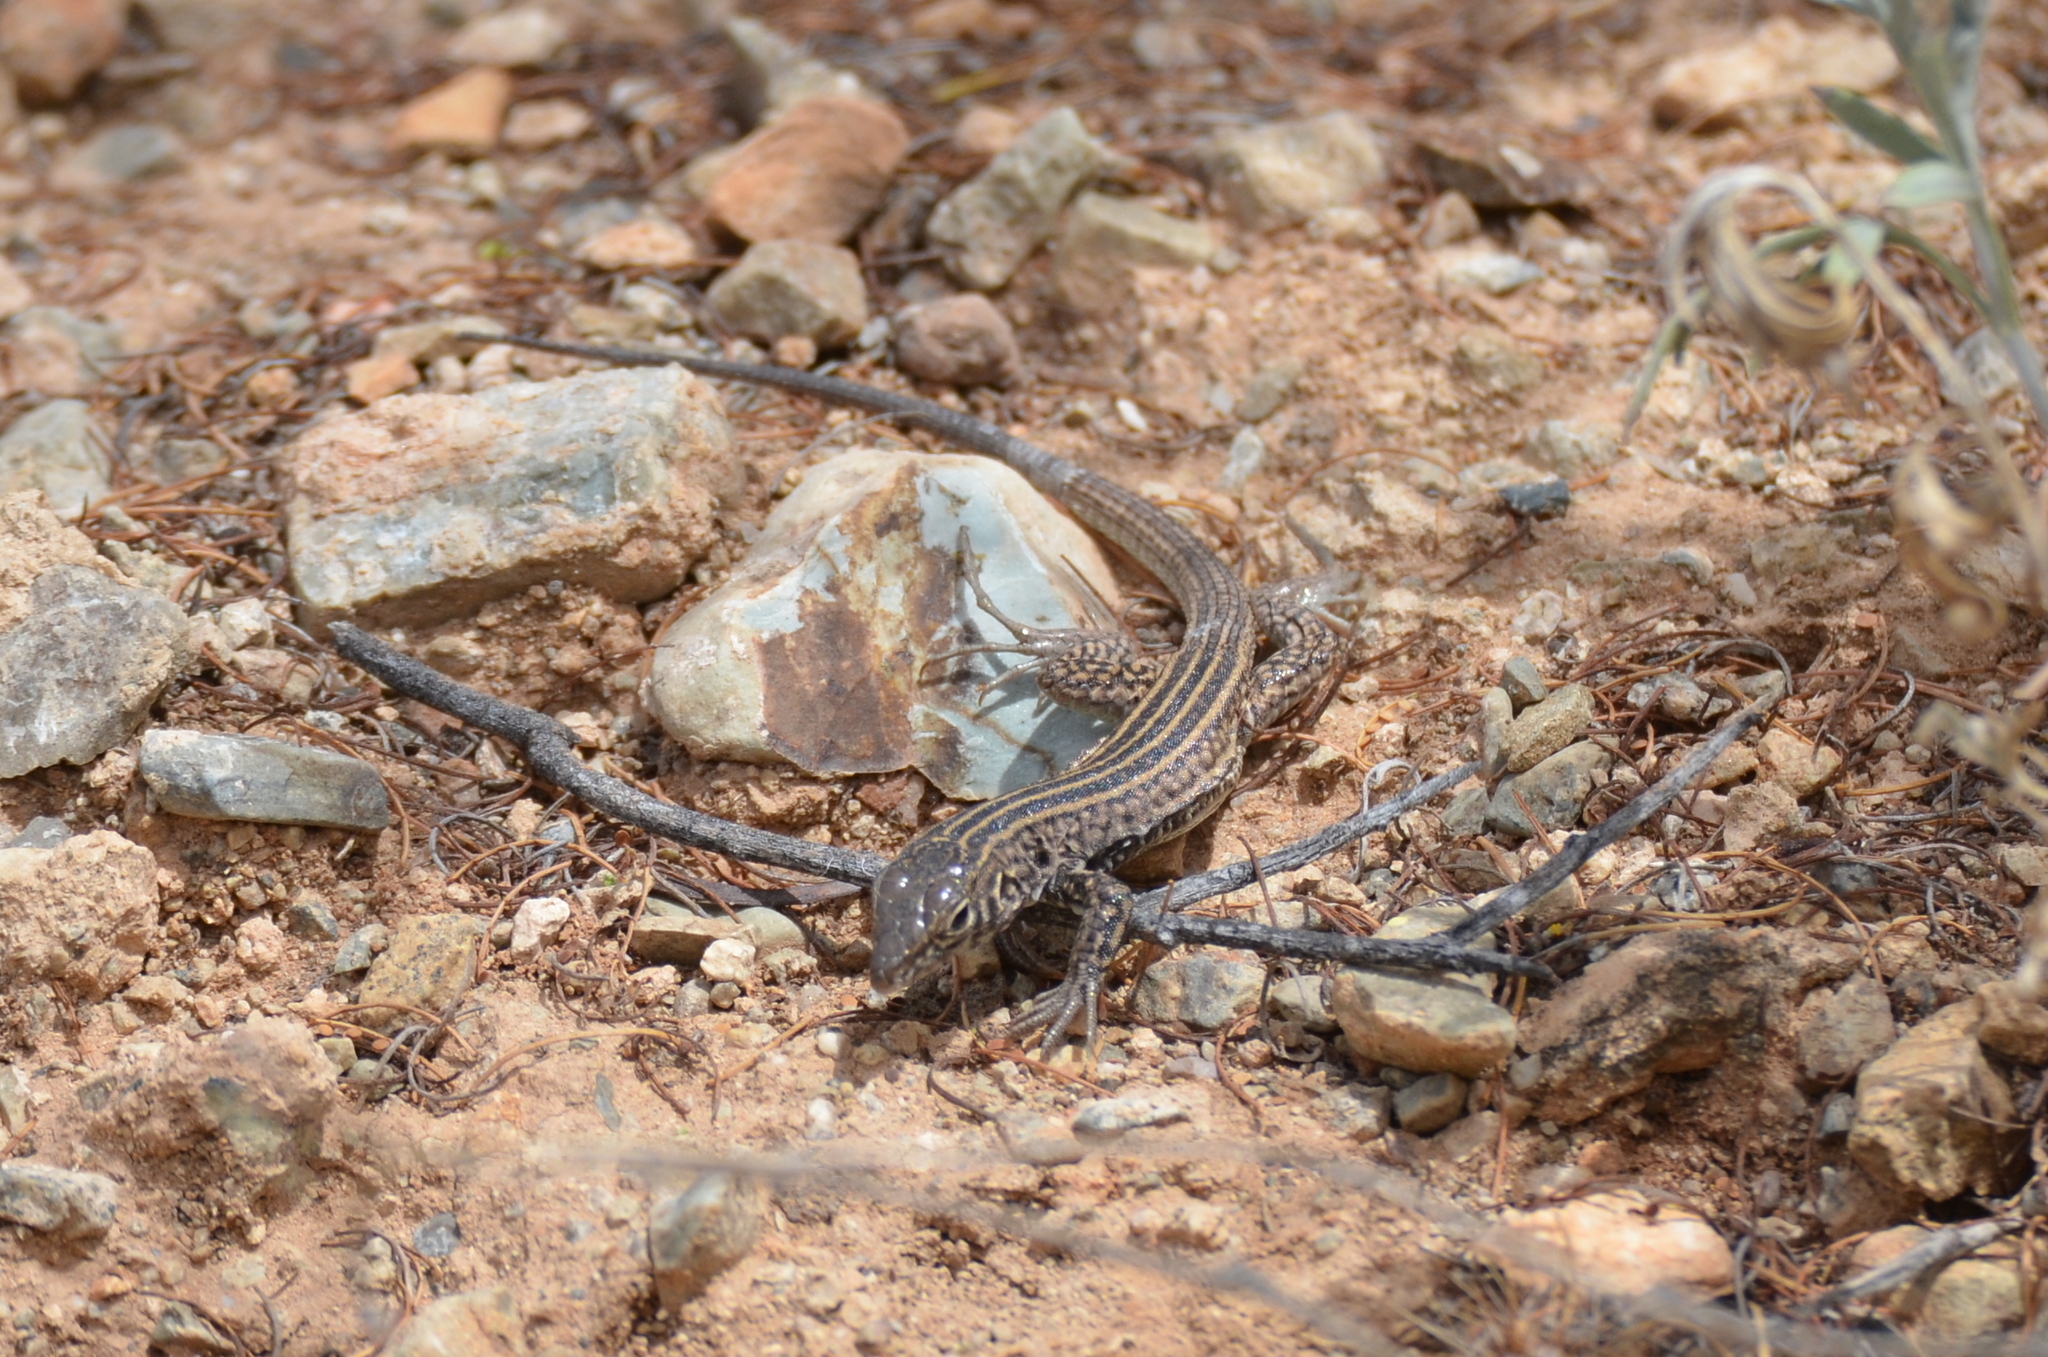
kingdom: Animalia
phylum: Chordata
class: Squamata
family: Teiidae
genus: Aspidoscelis
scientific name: Aspidoscelis tigris
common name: Tiger whiptail
